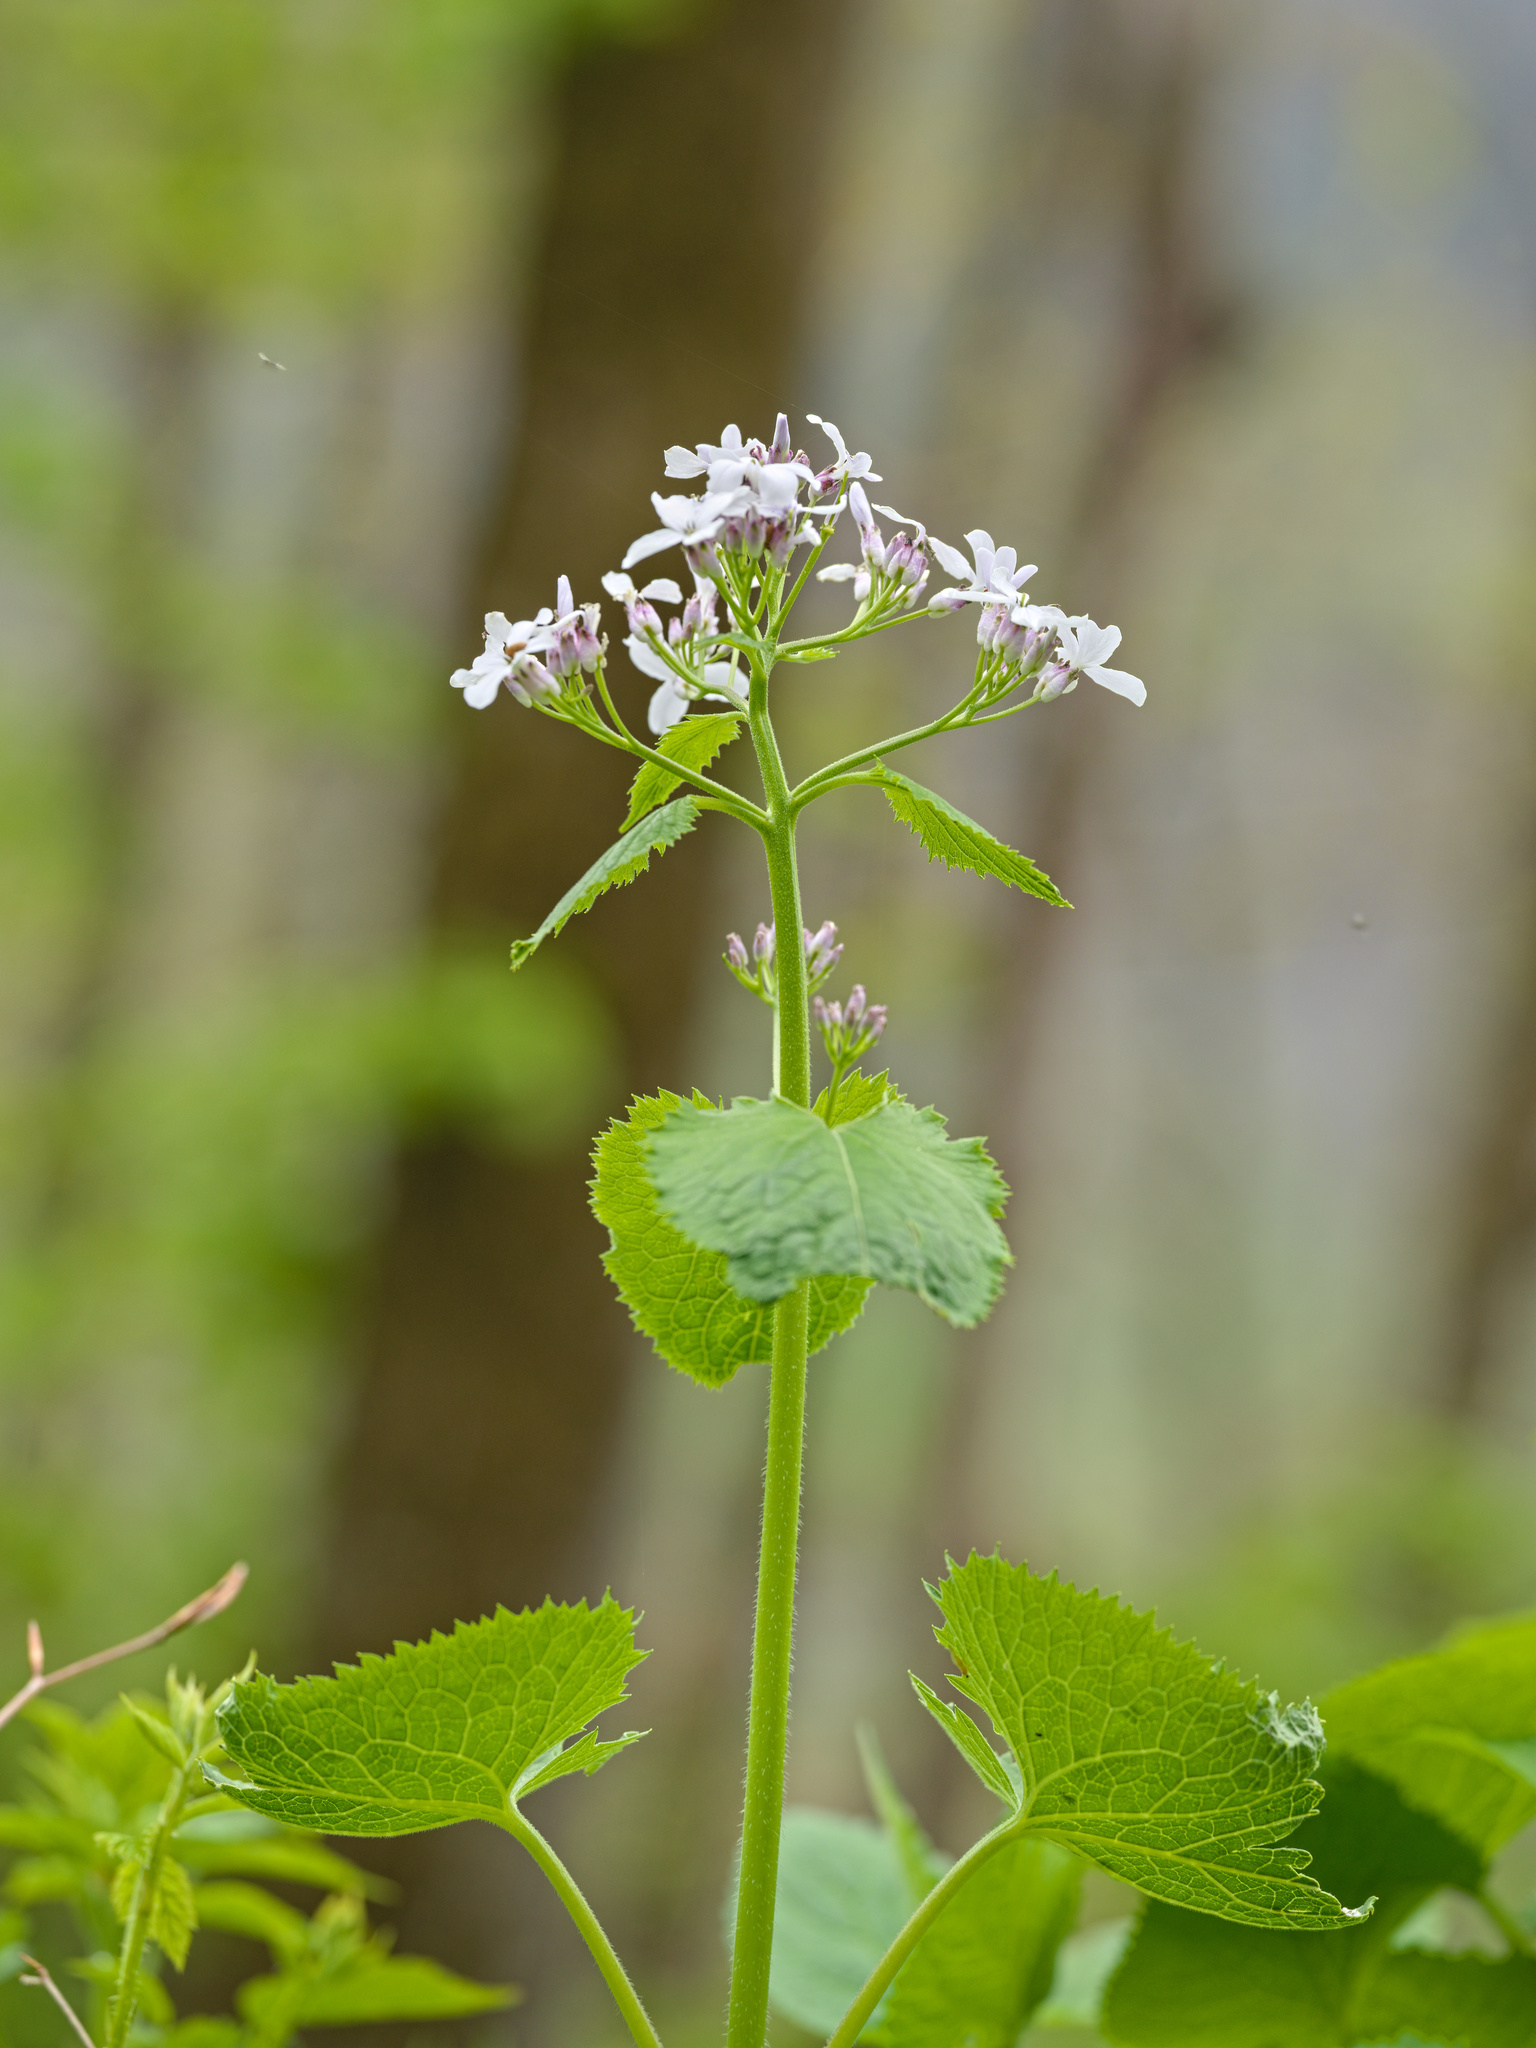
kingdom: Plantae
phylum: Tracheophyta
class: Magnoliopsida
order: Brassicales
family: Brassicaceae
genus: Lunaria
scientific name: Lunaria rediviva
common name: Perennial honesty
